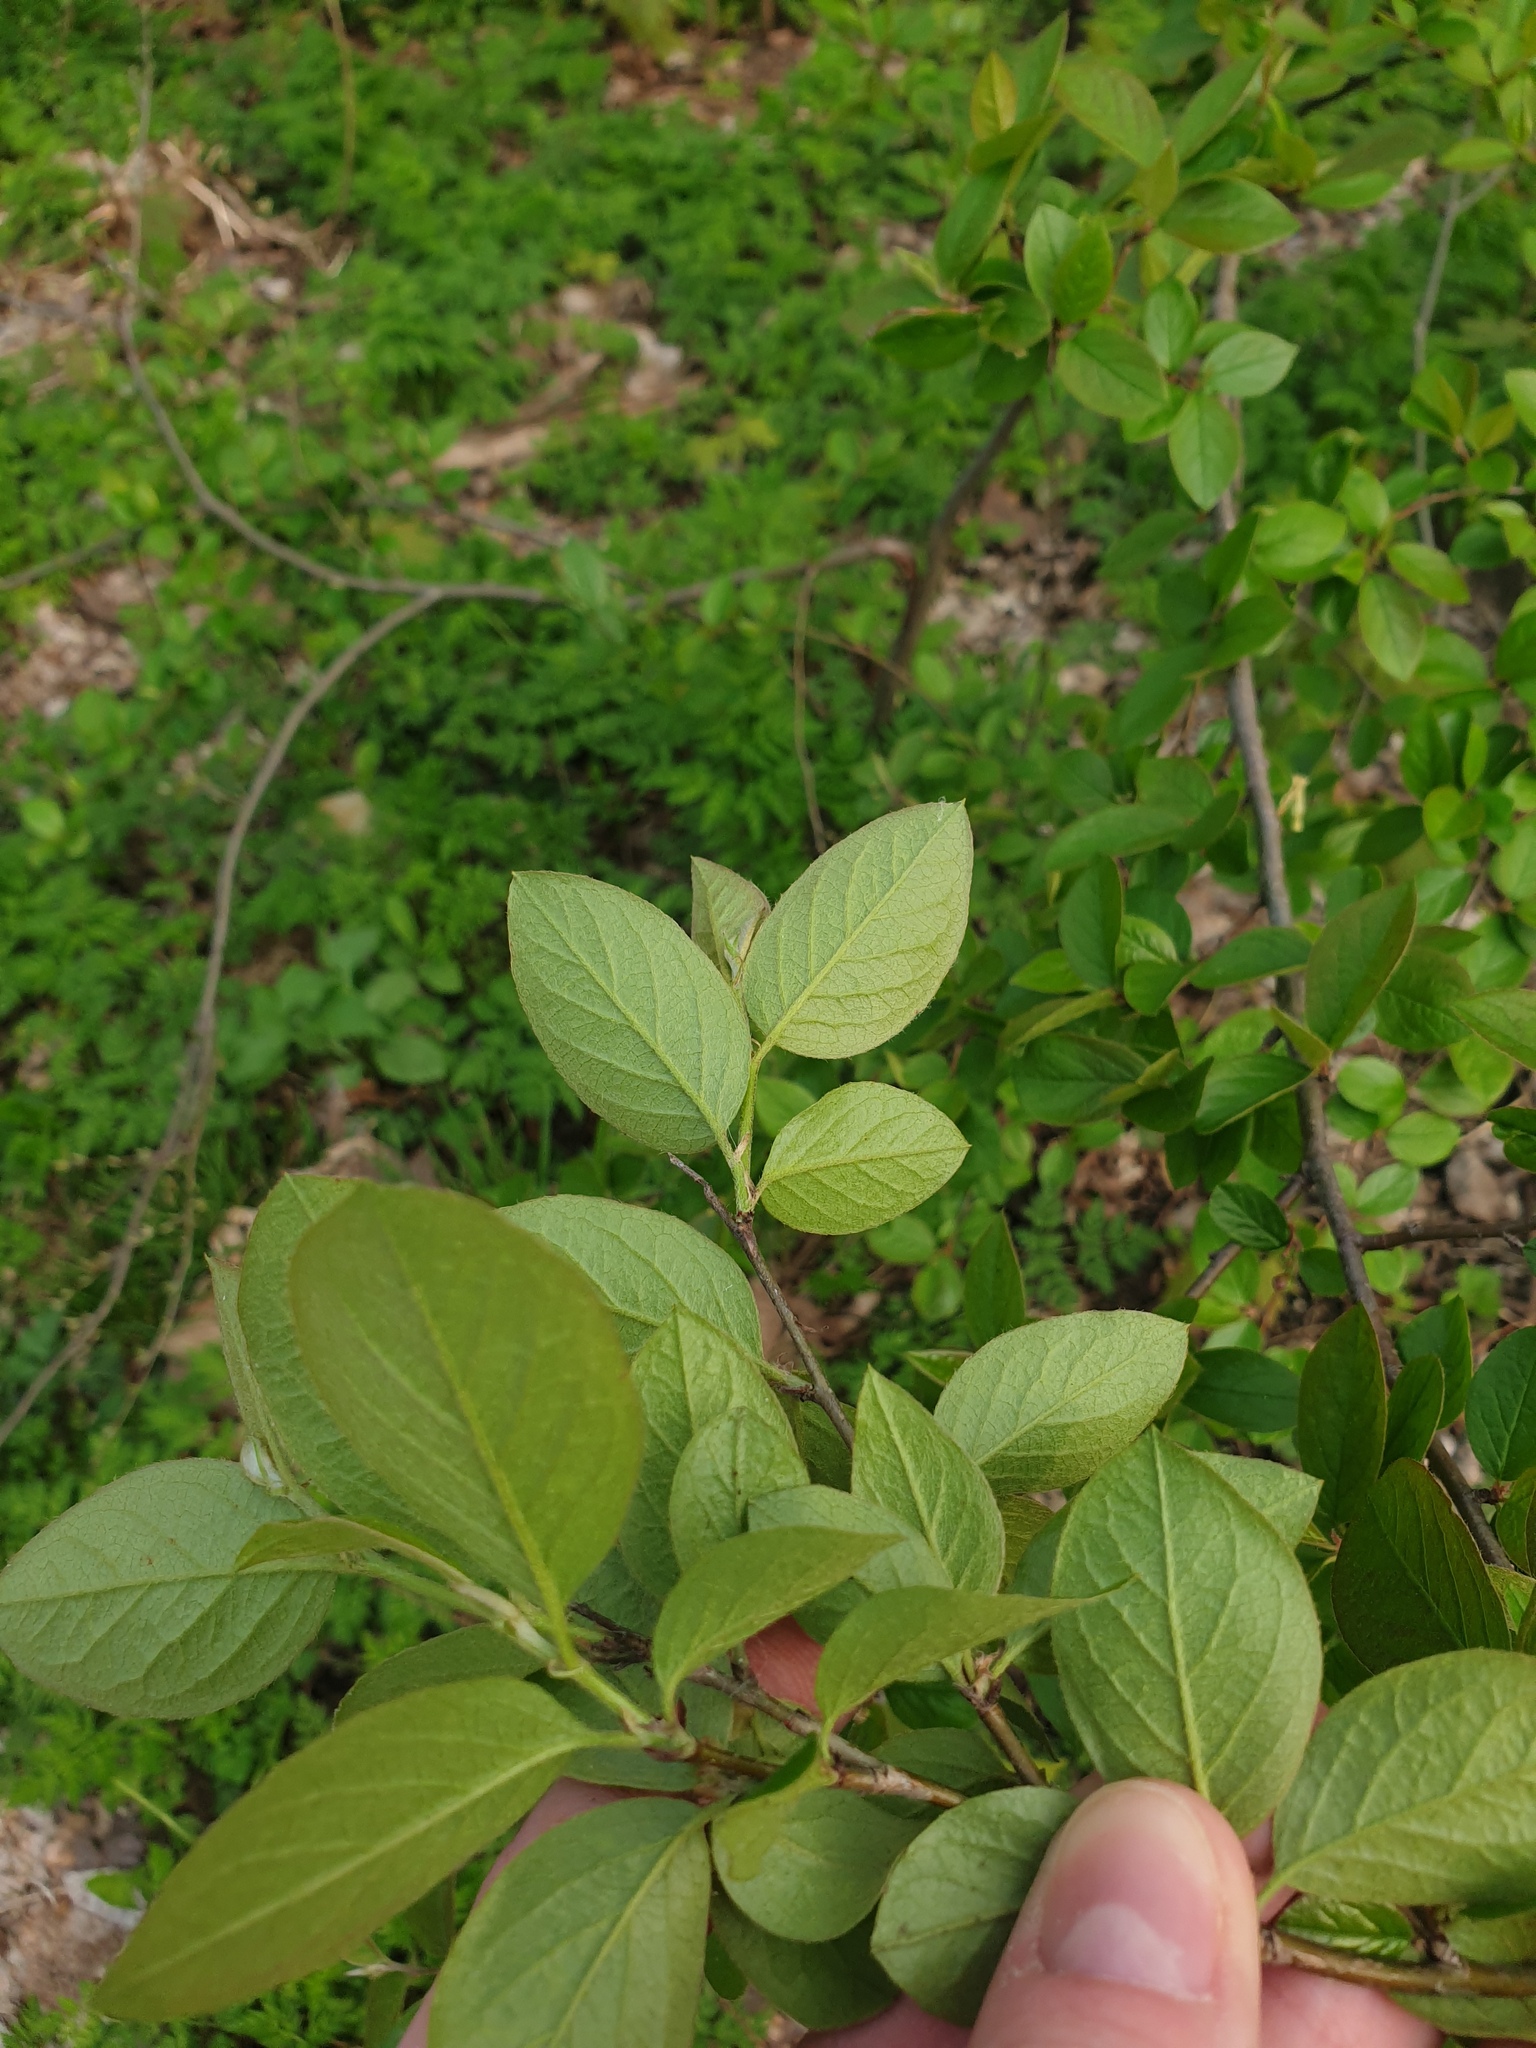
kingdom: Plantae
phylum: Tracheophyta
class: Magnoliopsida
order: Rosales
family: Rosaceae
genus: Cotoneaster
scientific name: Cotoneaster acutifolius
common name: Peking cotoneaster
